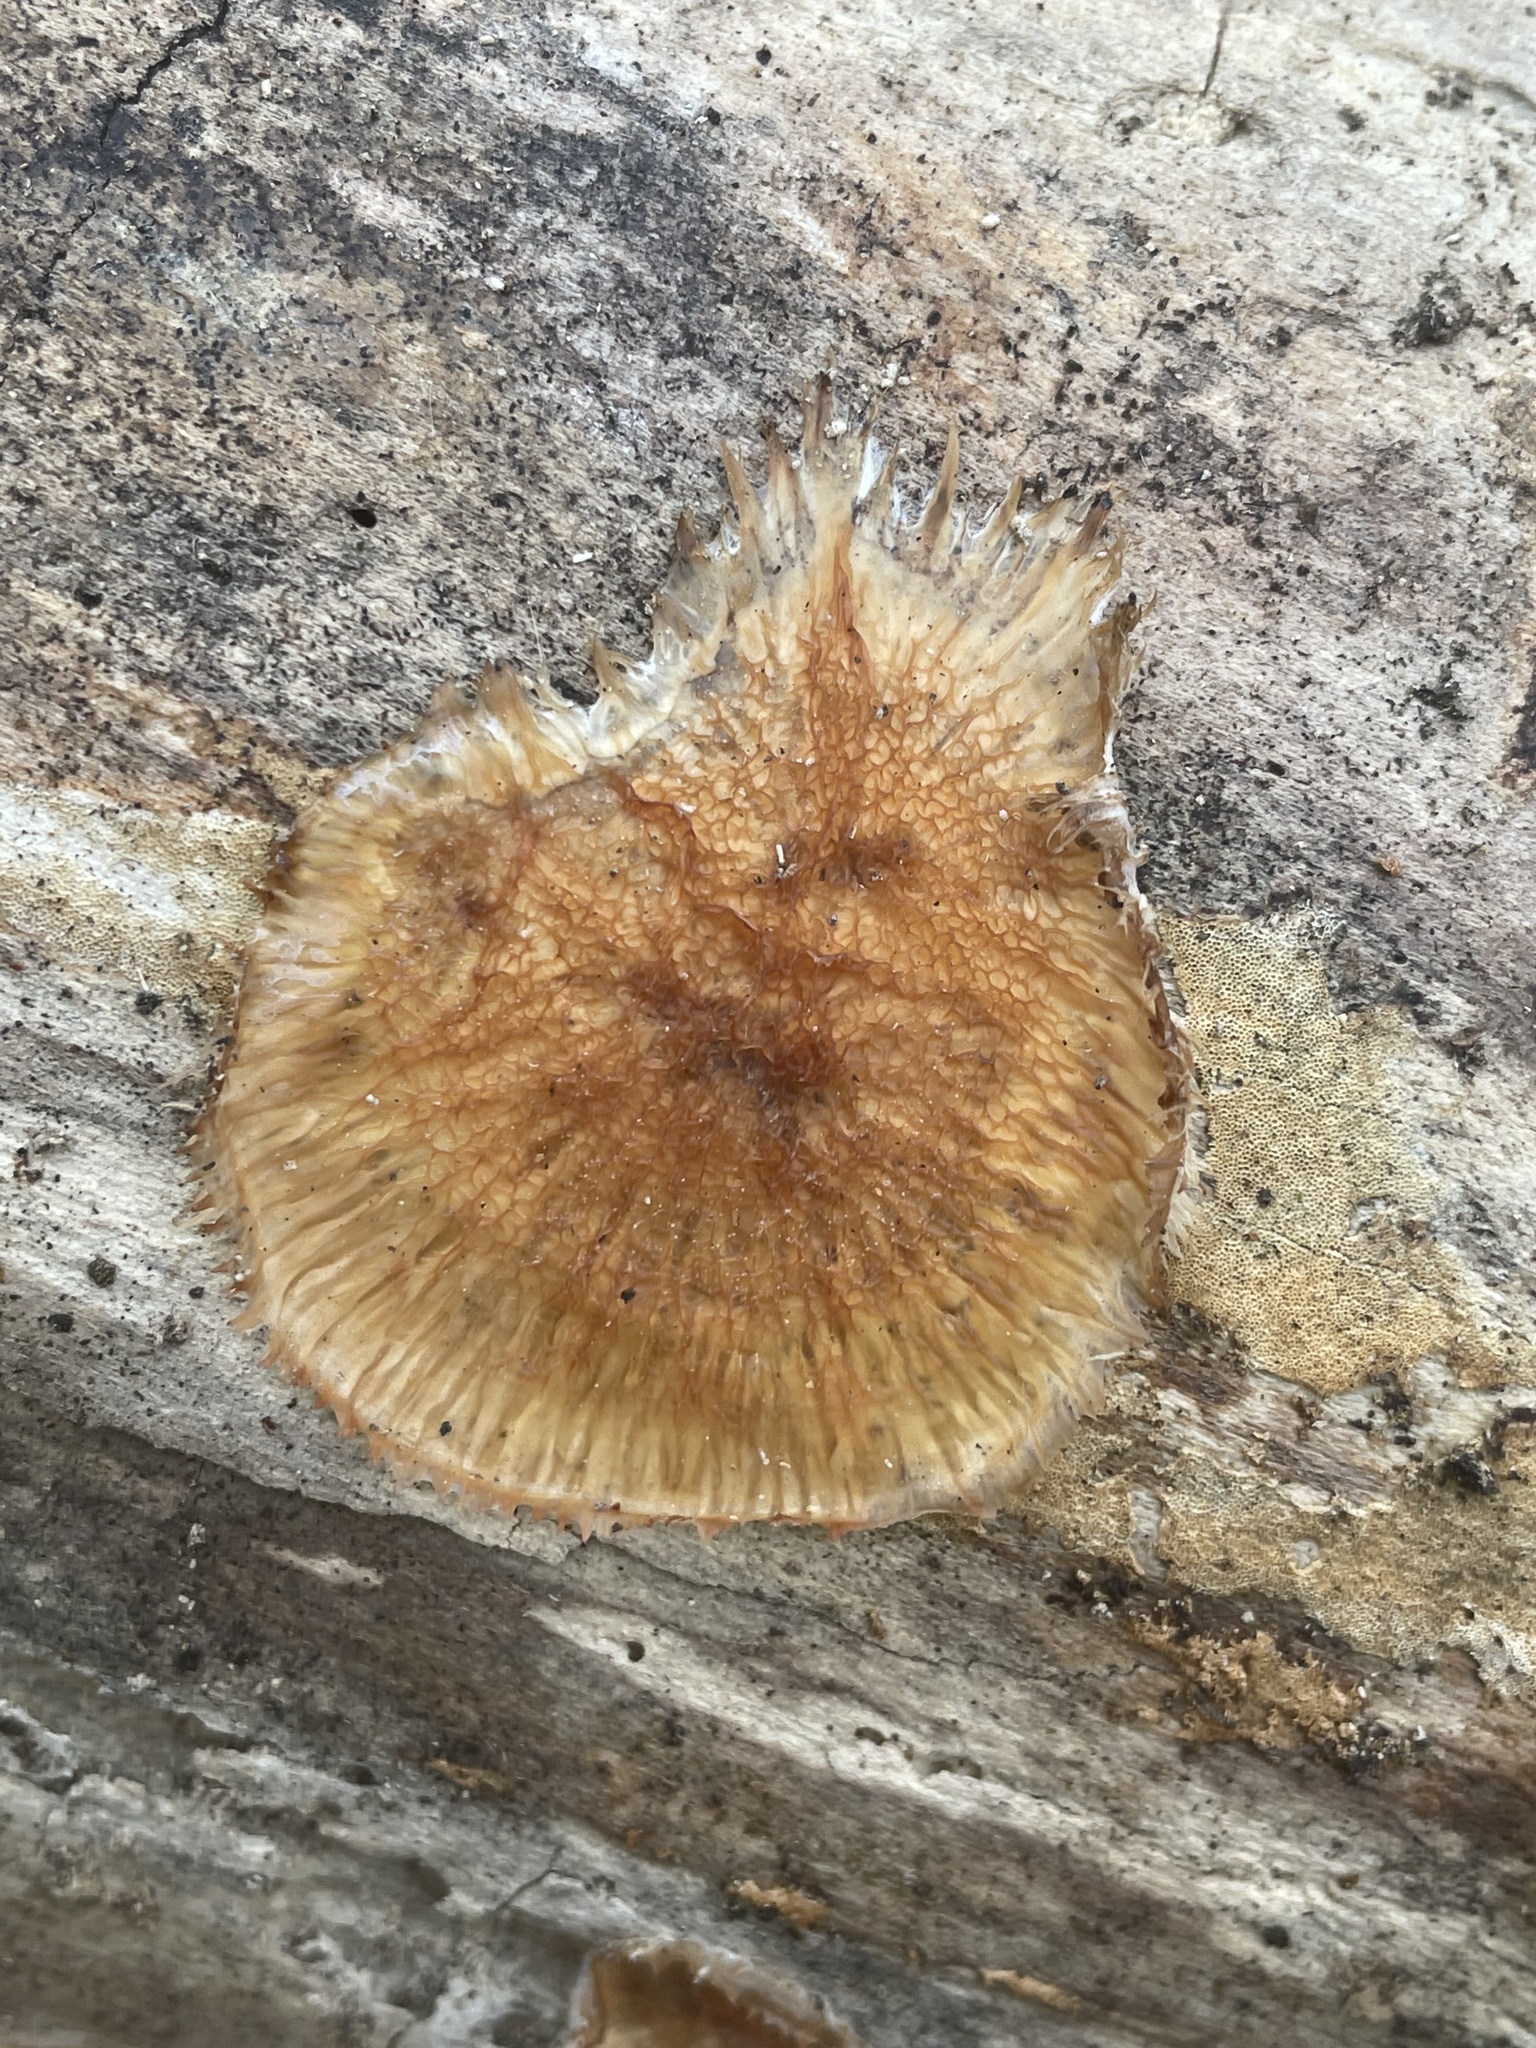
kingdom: Fungi
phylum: Basidiomycota
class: Agaricomycetes
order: Polyporales
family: Meruliaceae
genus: Phlebia
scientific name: Phlebia radiata
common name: Wrinkled crust
